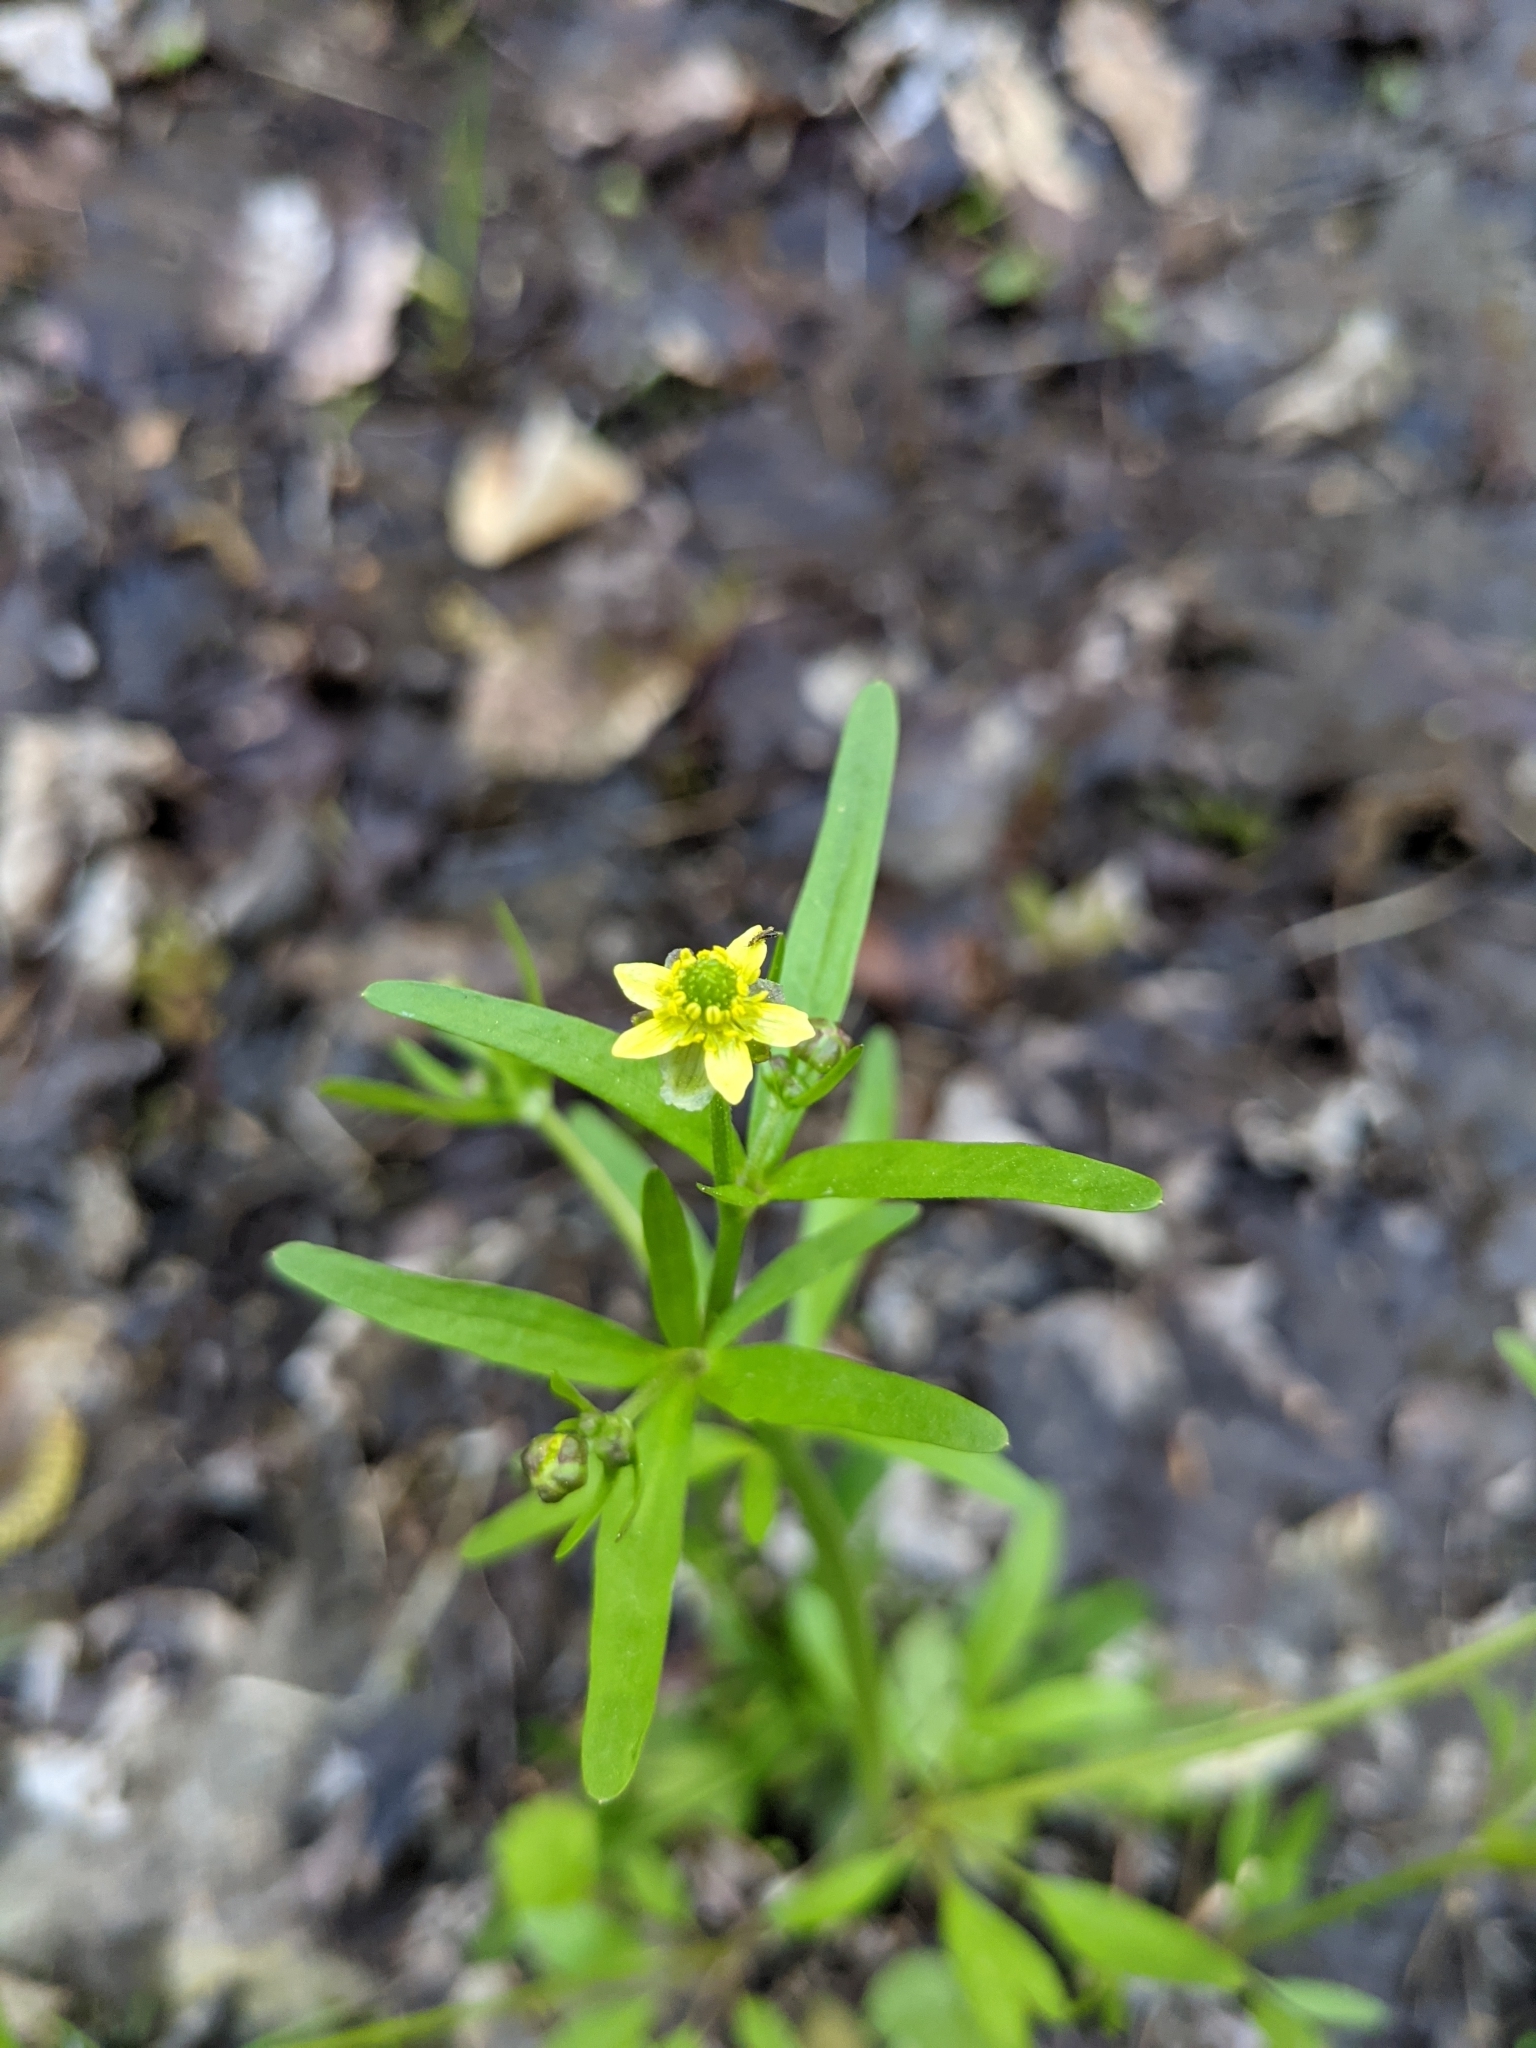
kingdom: Plantae
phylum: Tracheophyta
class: Magnoliopsida
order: Ranunculales
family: Ranunculaceae
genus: Ranunculus
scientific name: Ranunculus abortivus
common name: Early wood buttercup
